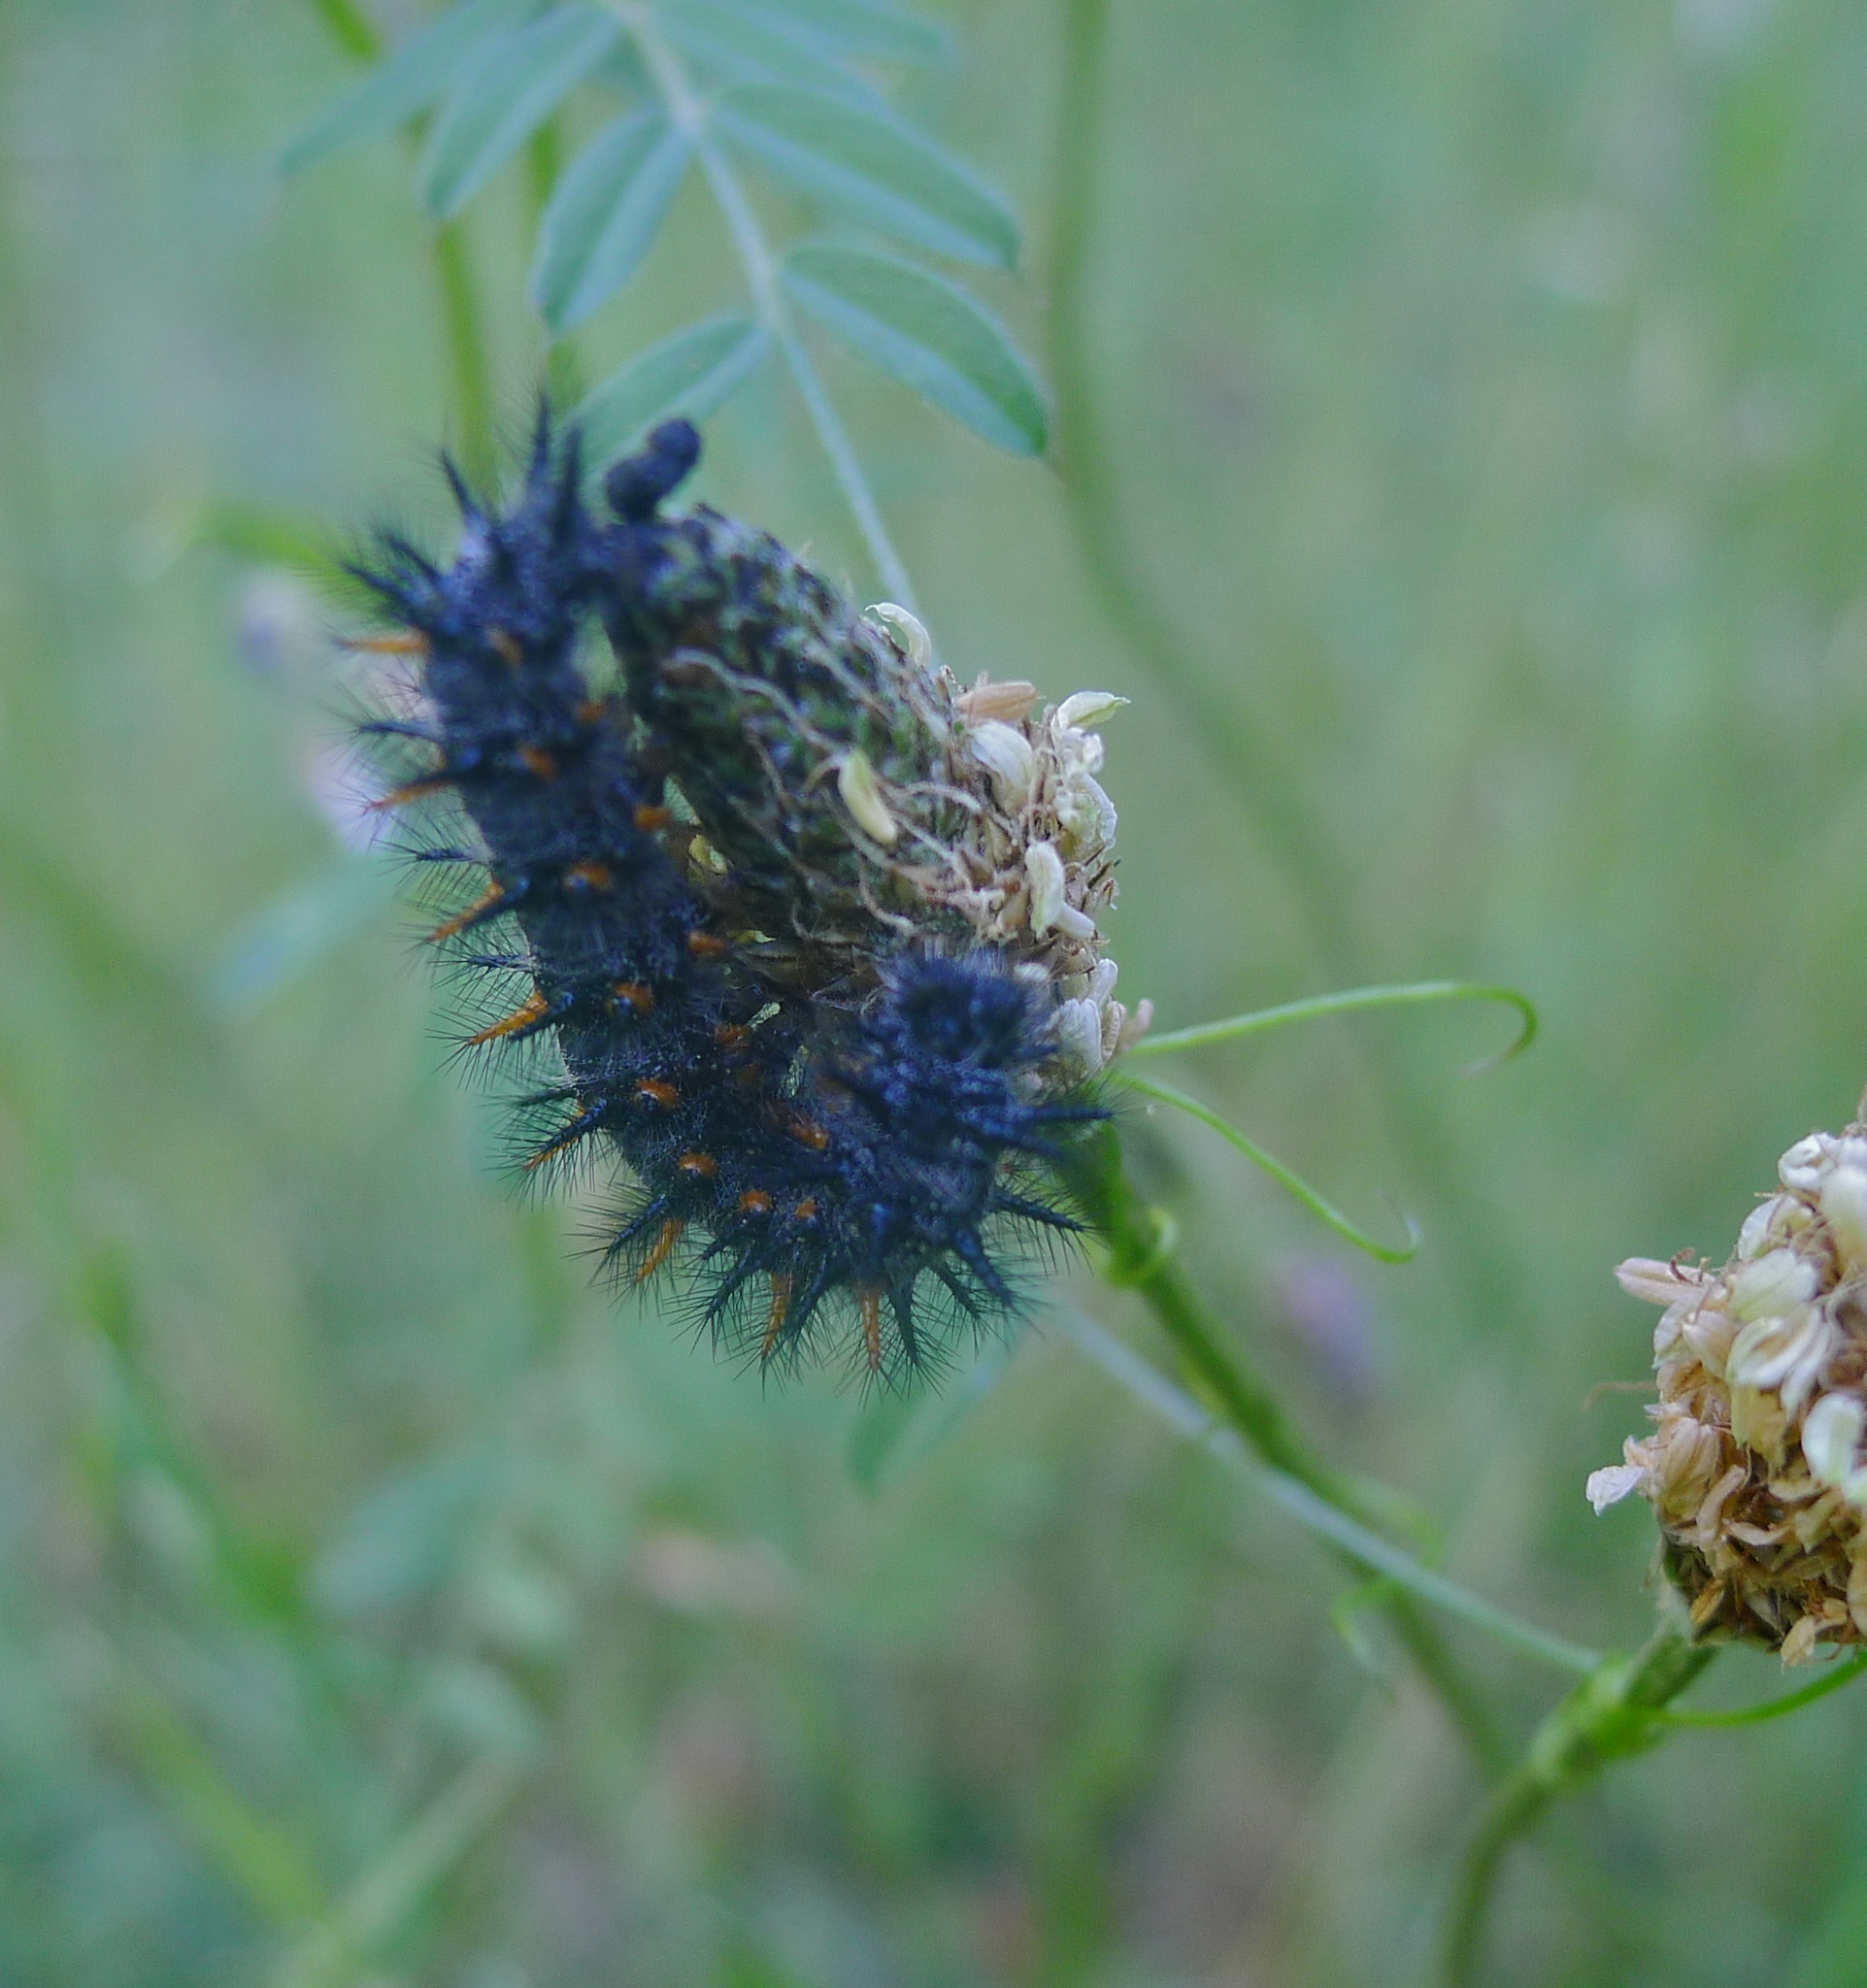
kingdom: Animalia
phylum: Arthropoda
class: Insecta
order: Lepidoptera
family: Nymphalidae
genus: Occidryas
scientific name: Occidryas chalcedona
